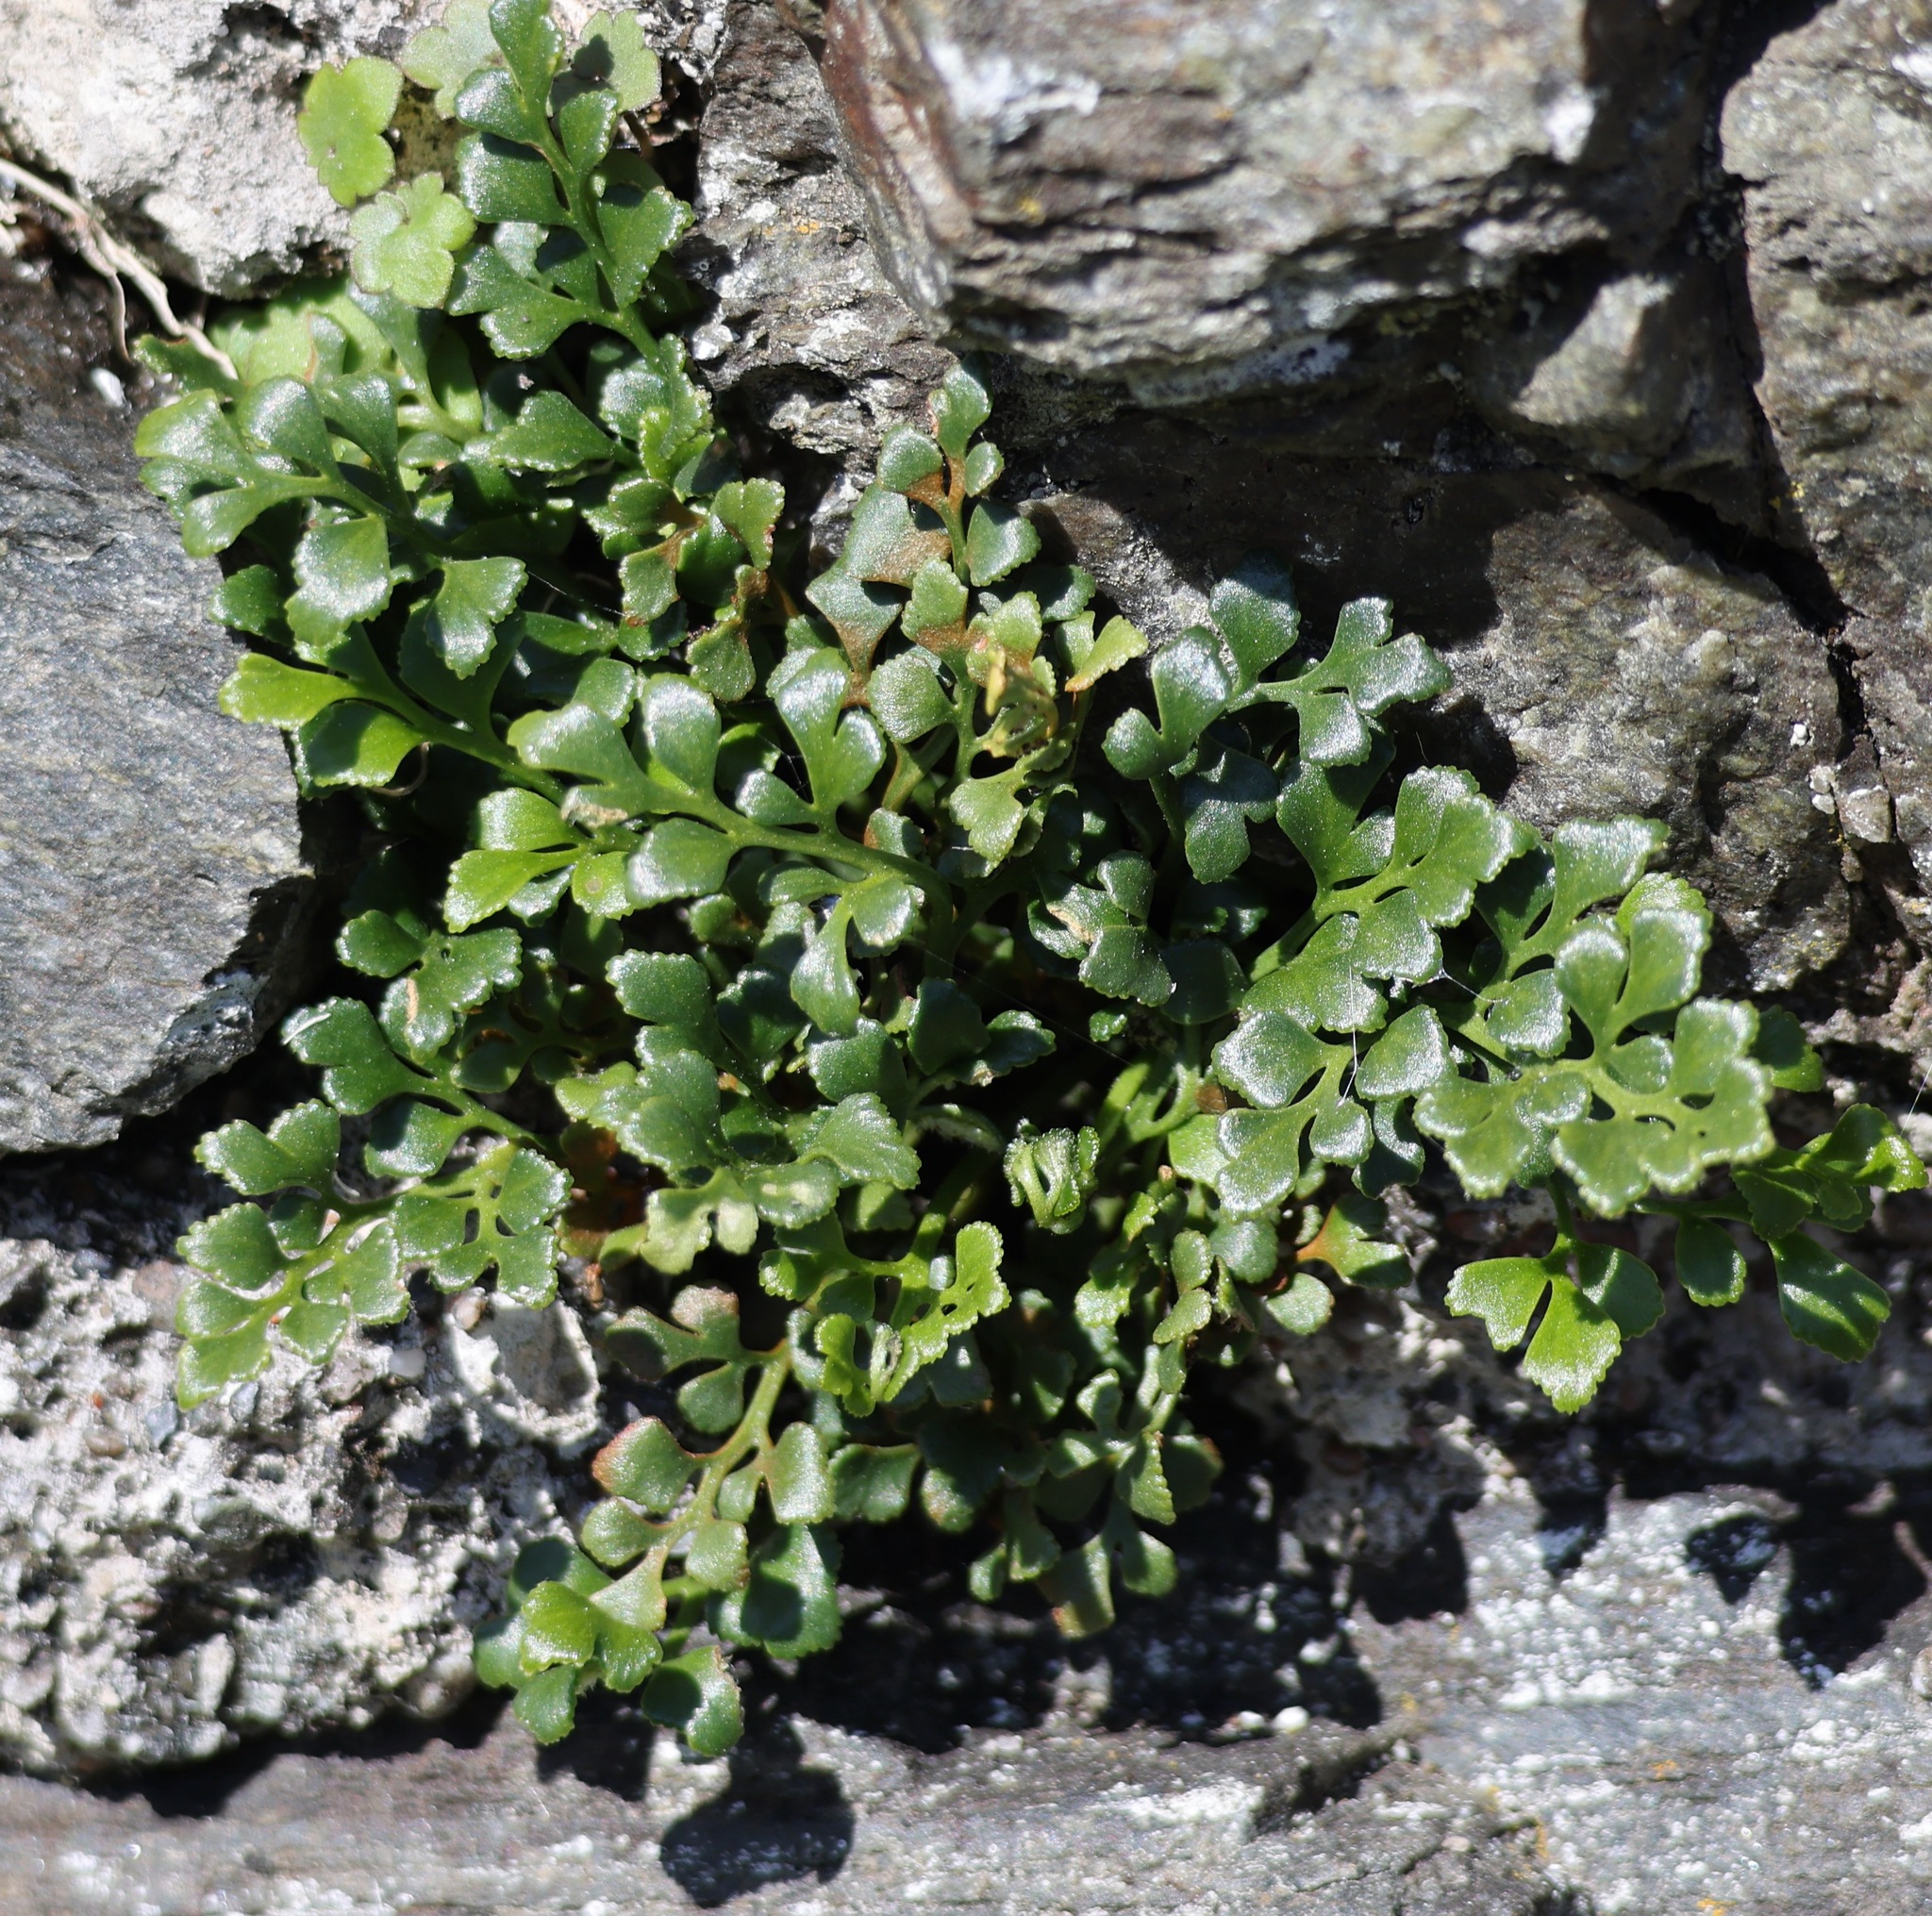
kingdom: Plantae
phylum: Tracheophyta
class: Polypodiopsida
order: Polypodiales
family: Aspleniaceae
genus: Asplenium
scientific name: Asplenium ruta-muraria
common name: Wall-rue
